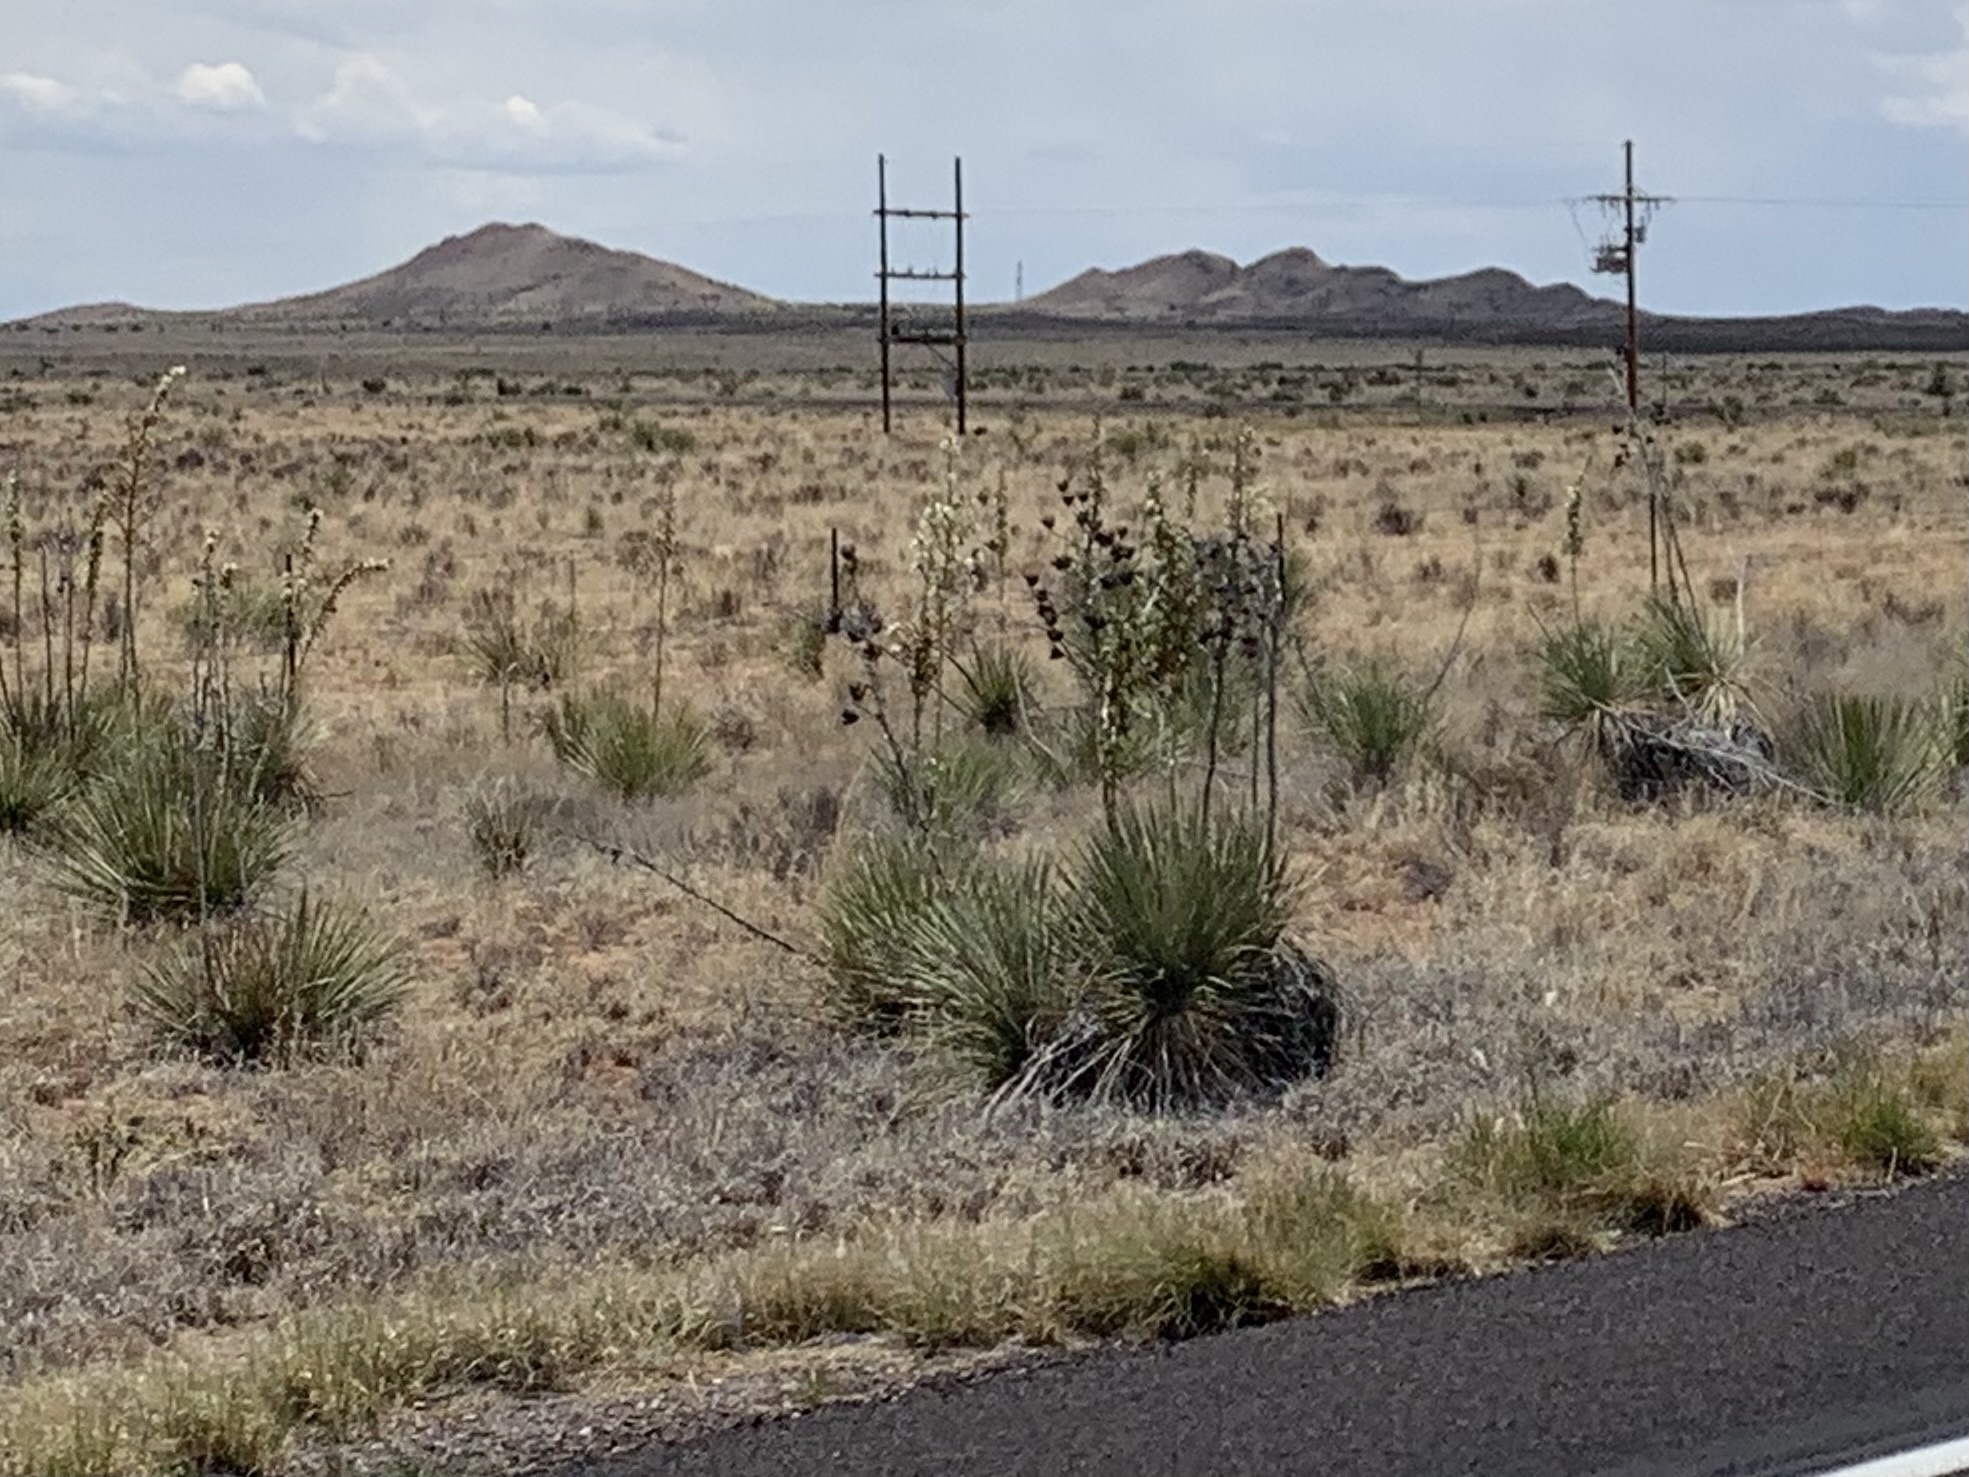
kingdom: Plantae
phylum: Tracheophyta
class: Liliopsida
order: Asparagales
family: Asparagaceae
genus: Yucca
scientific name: Yucca elata
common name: Palmella
